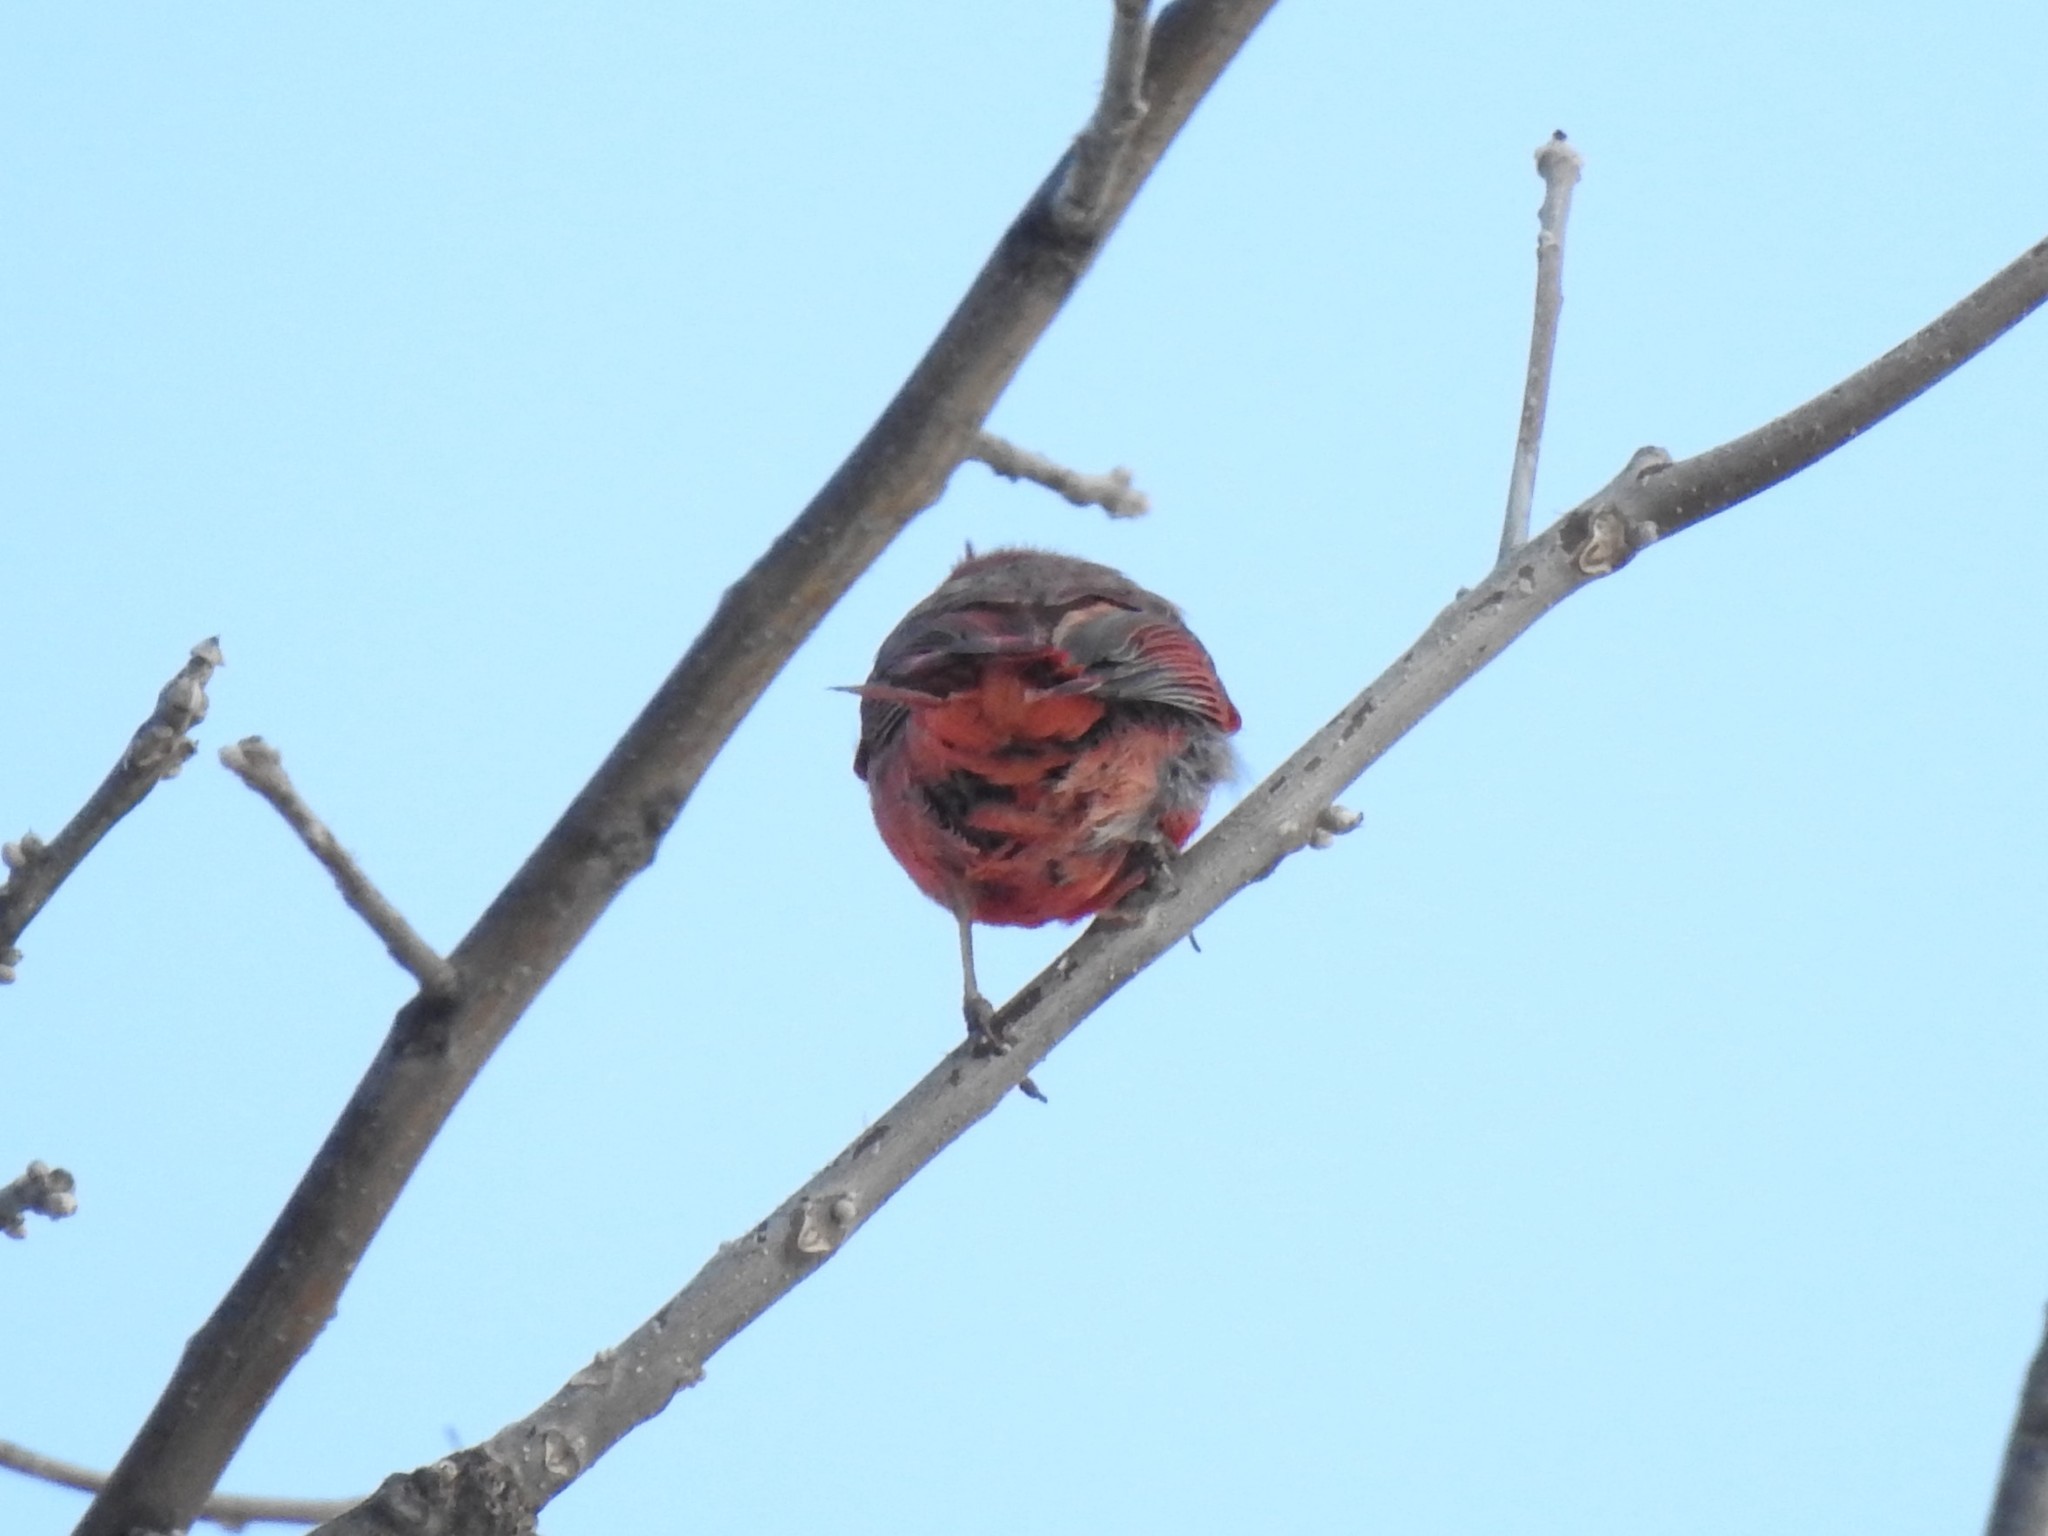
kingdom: Animalia
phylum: Chordata
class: Aves
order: Passeriformes
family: Cardinalidae
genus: Cardinalis
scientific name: Cardinalis cardinalis
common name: Northern cardinal
